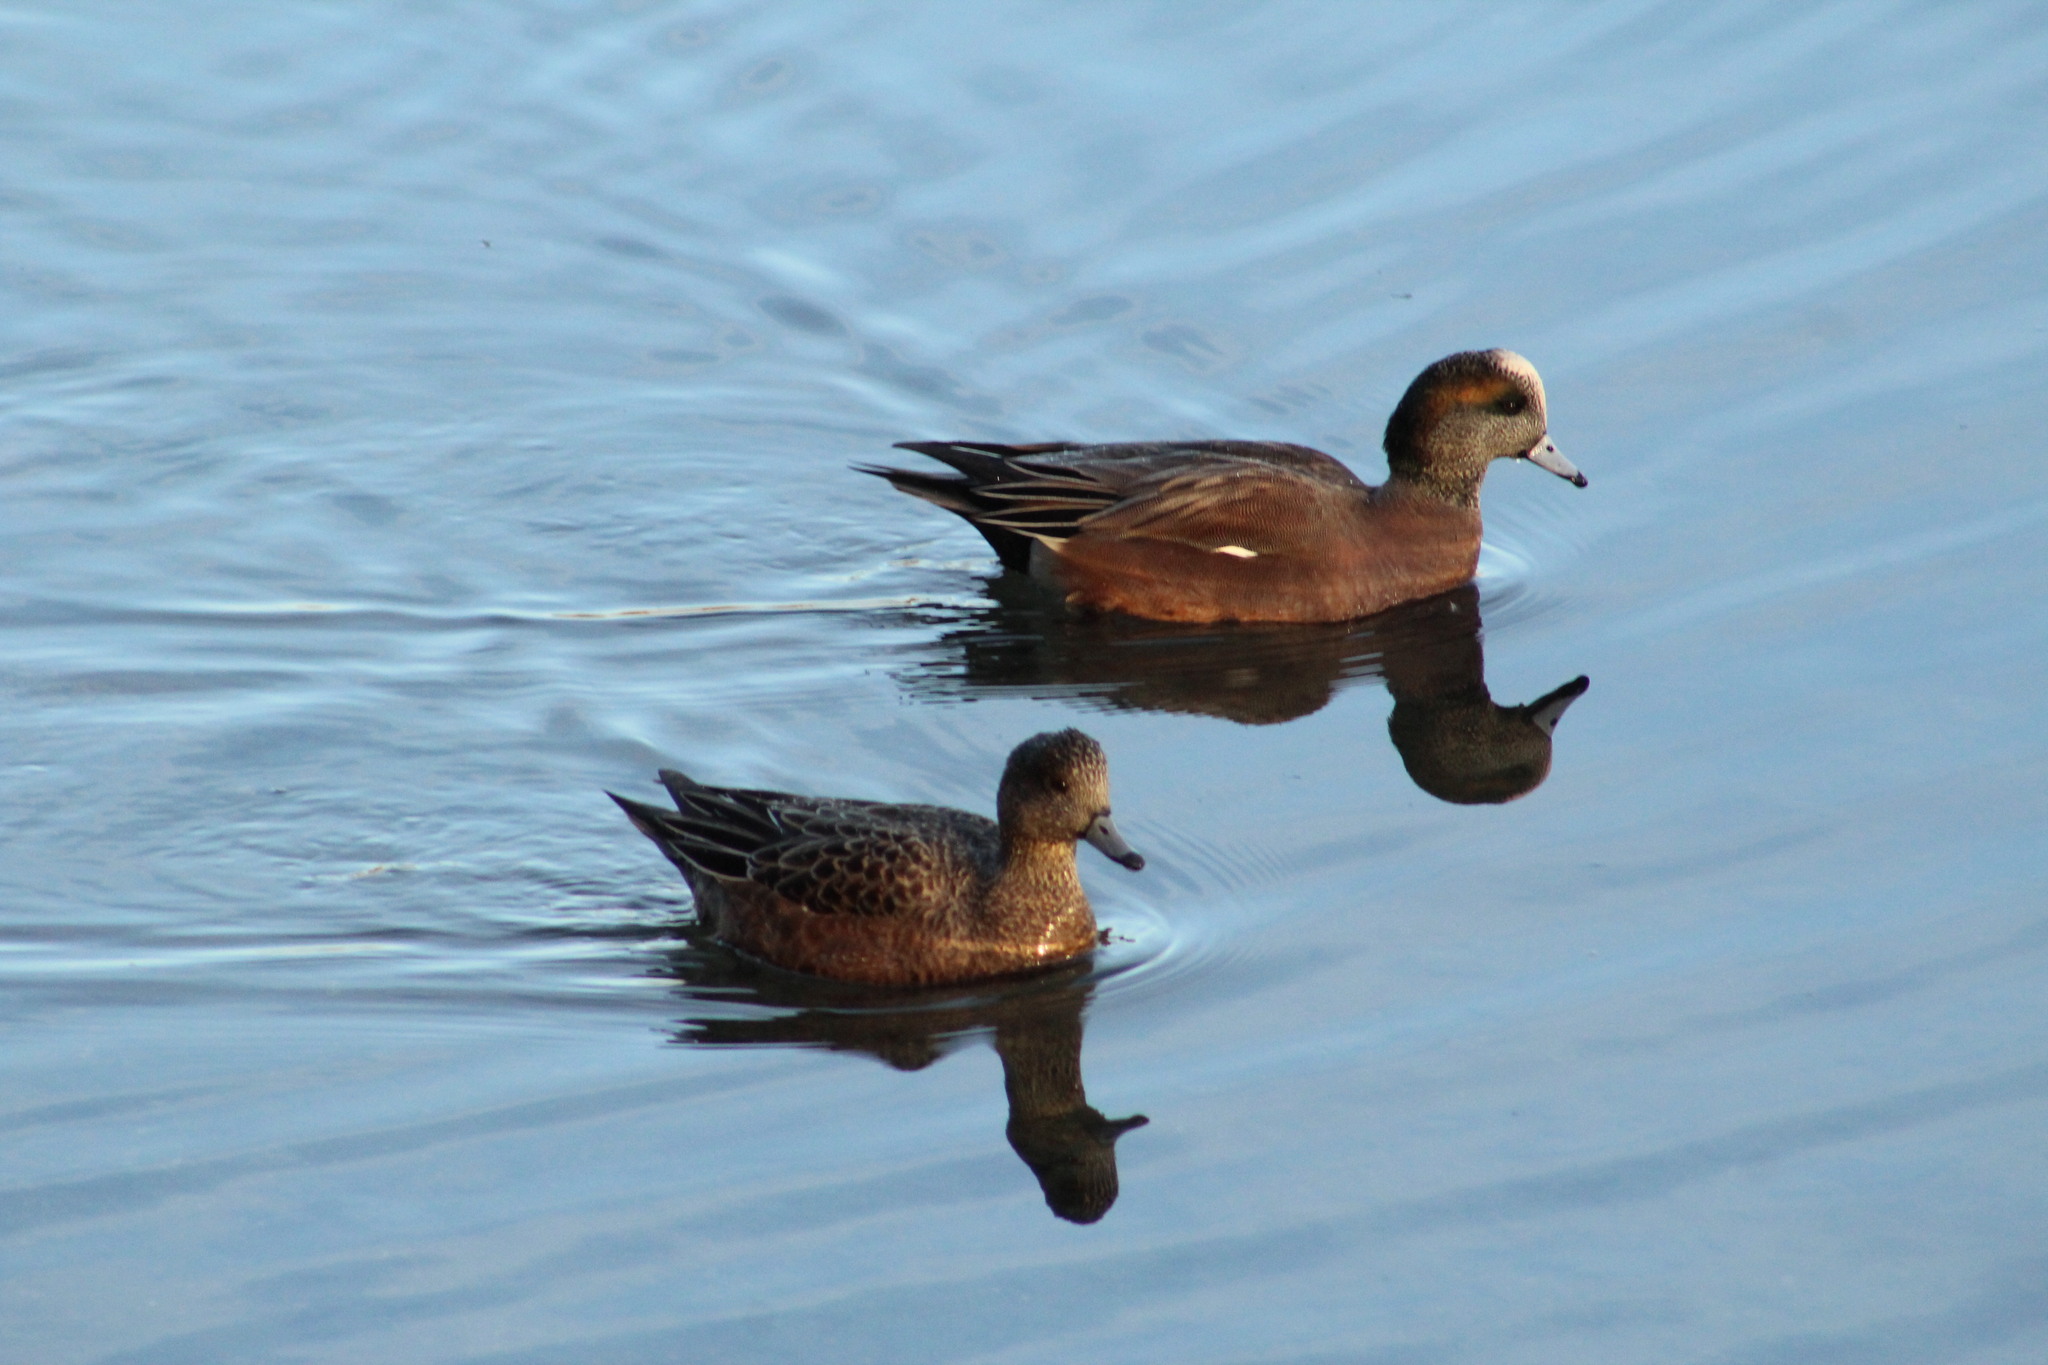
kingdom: Animalia
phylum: Chordata
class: Aves
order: Anseriformes
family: Anatidae
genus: Mareca
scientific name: Mareca americana
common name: American wigeon
